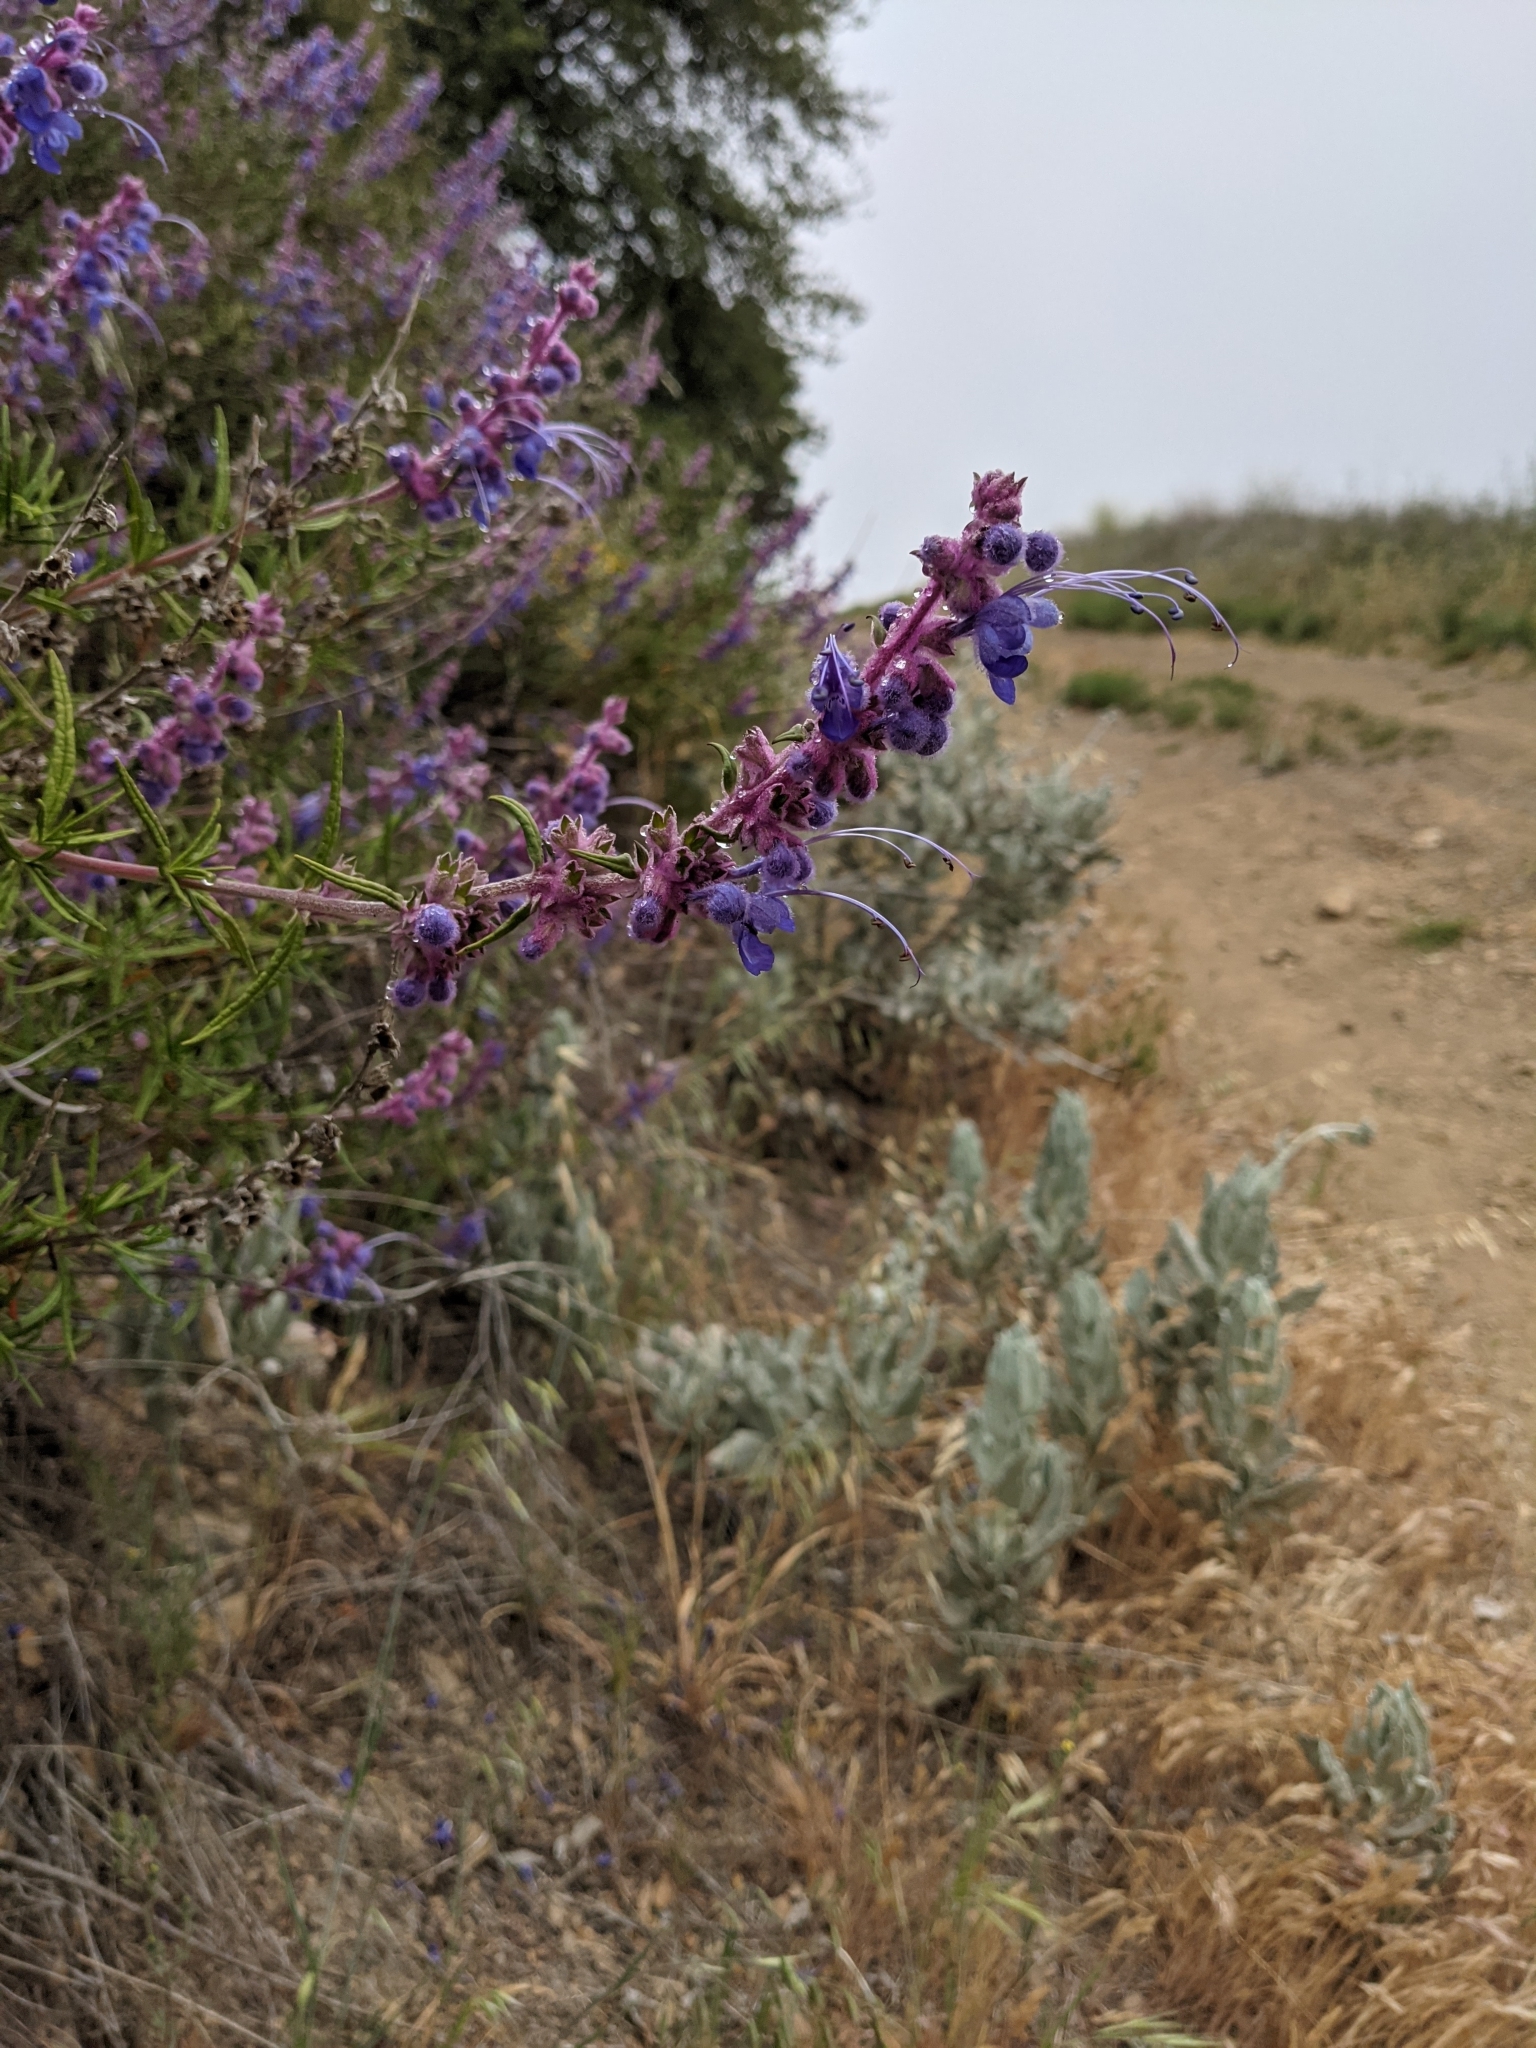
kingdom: Plantae
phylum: Tracheophyta
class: Magnoliopsida
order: Lamiales
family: Lamiaceae
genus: Trichostema
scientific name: Trichostema lanatum
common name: Woolly bluecurls
